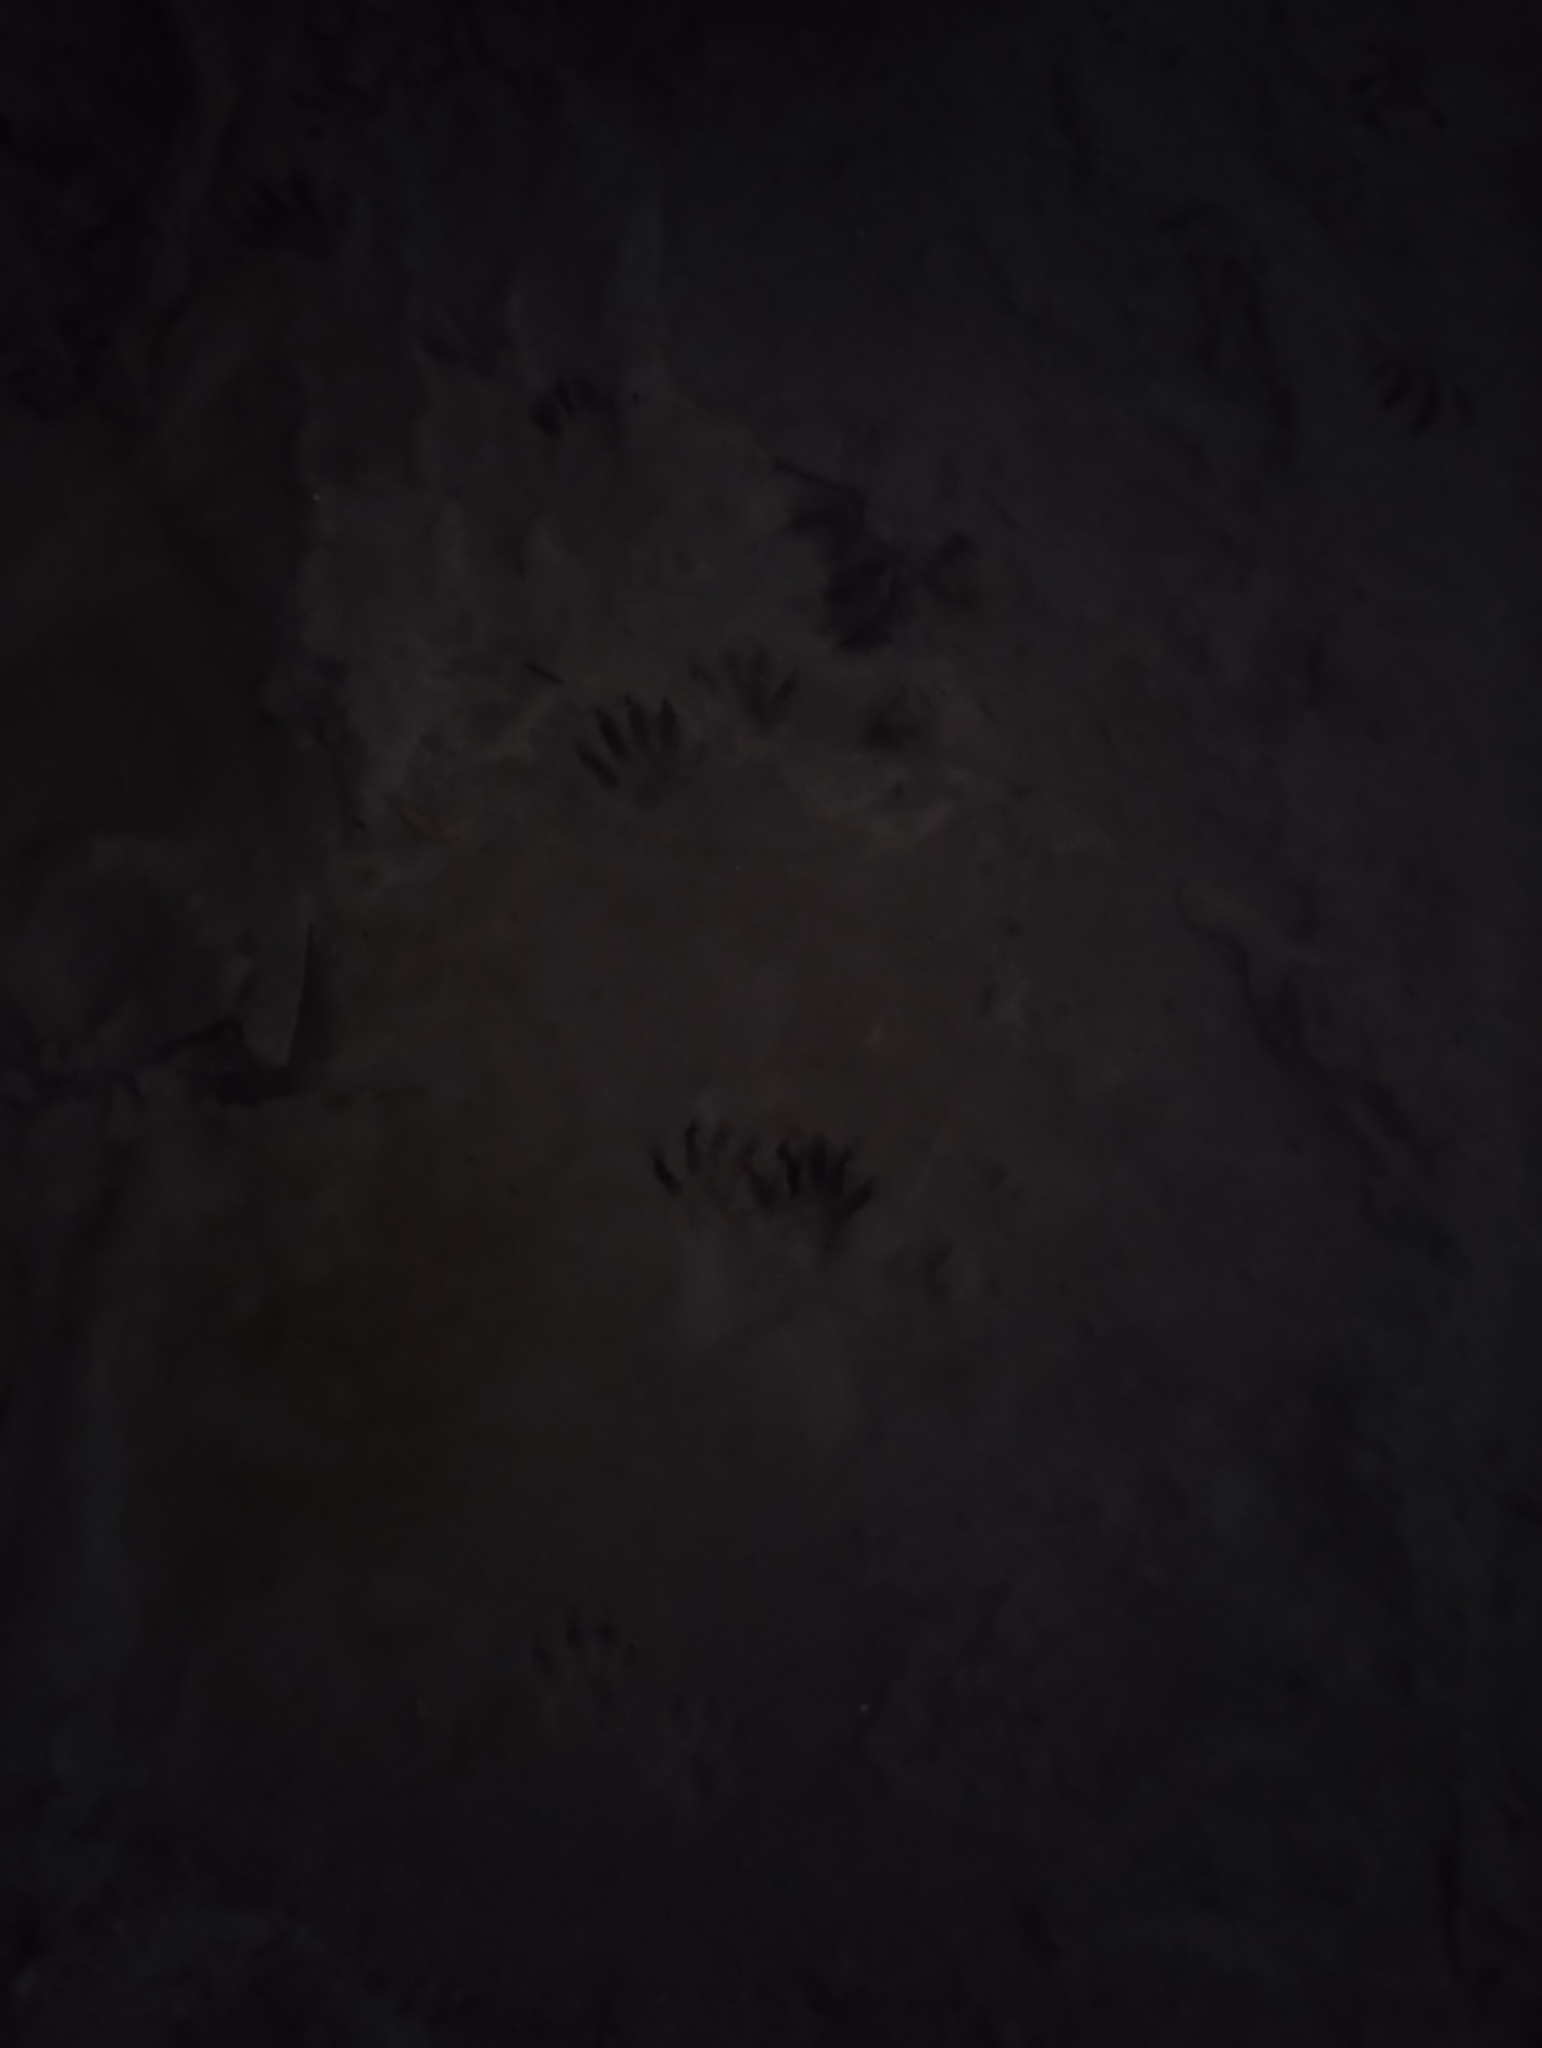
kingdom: Animalia
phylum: Chordata
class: Mammalia
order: Carnivora
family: Procyonidae
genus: Procyon
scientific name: Procyon lotor
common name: Raccoon
